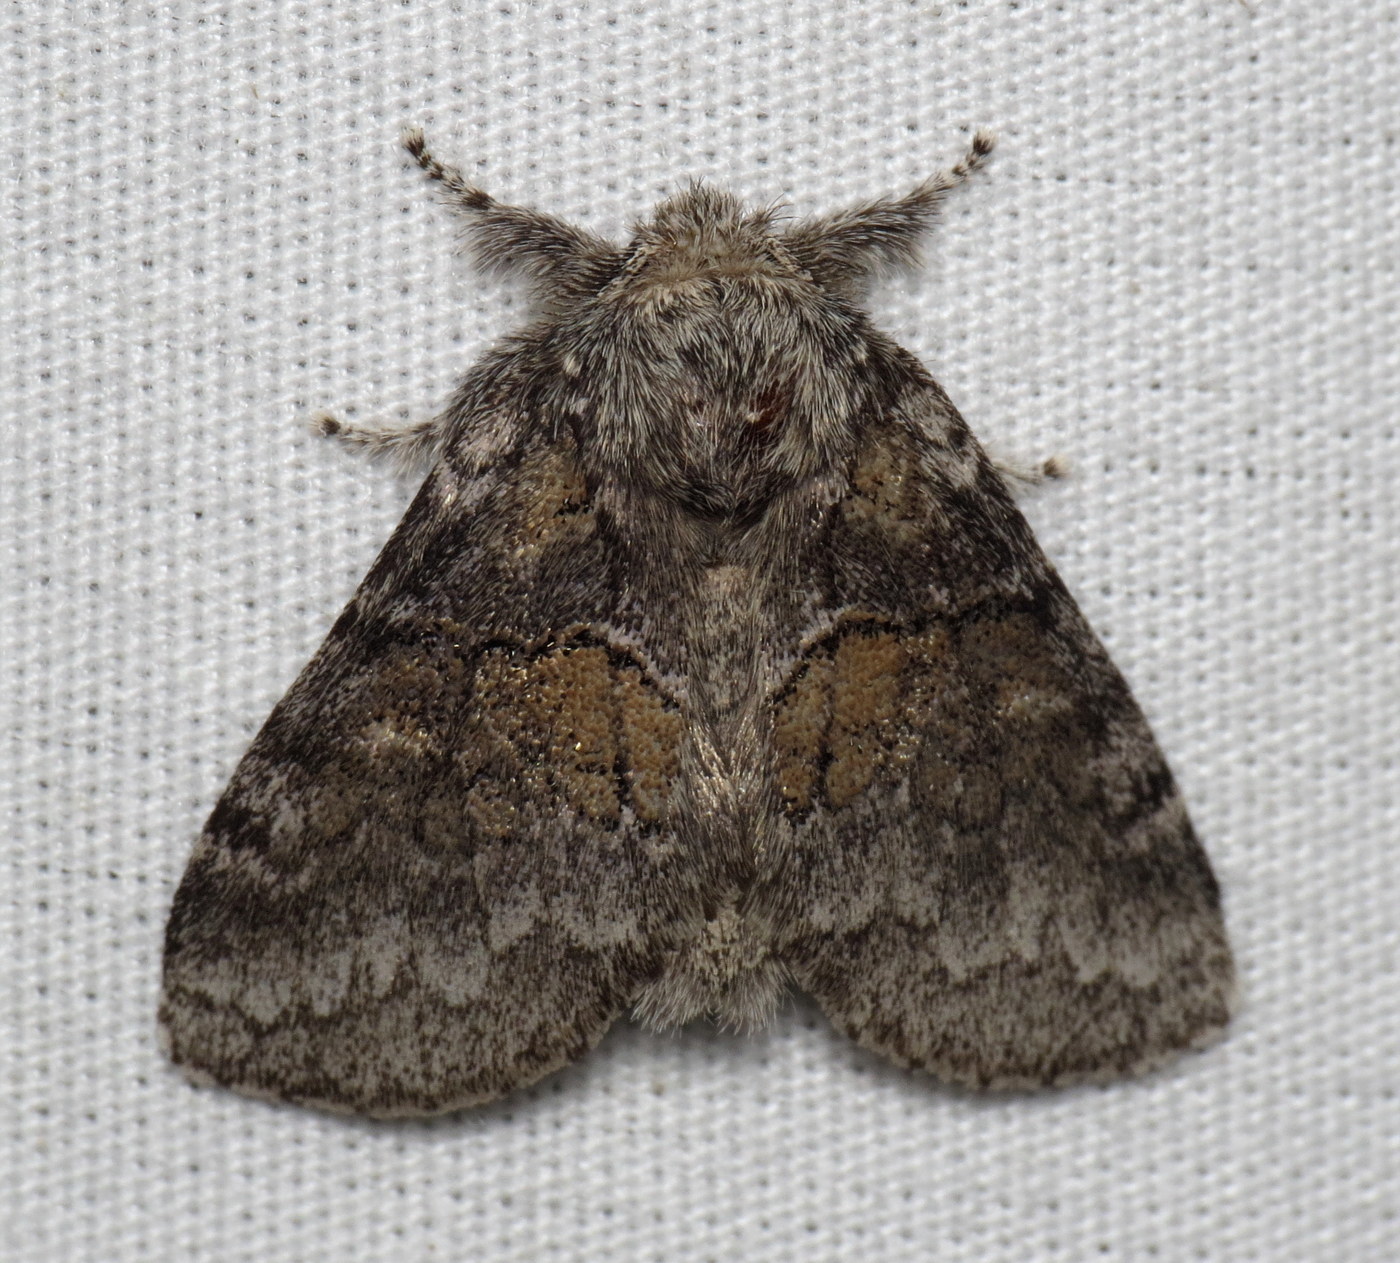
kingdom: Animalia
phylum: Arthropoda
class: Insecta
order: Lepidoptera
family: Notodontidae
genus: Gluphisia
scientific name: Gluphisia septentrionis
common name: Common gluphisia
